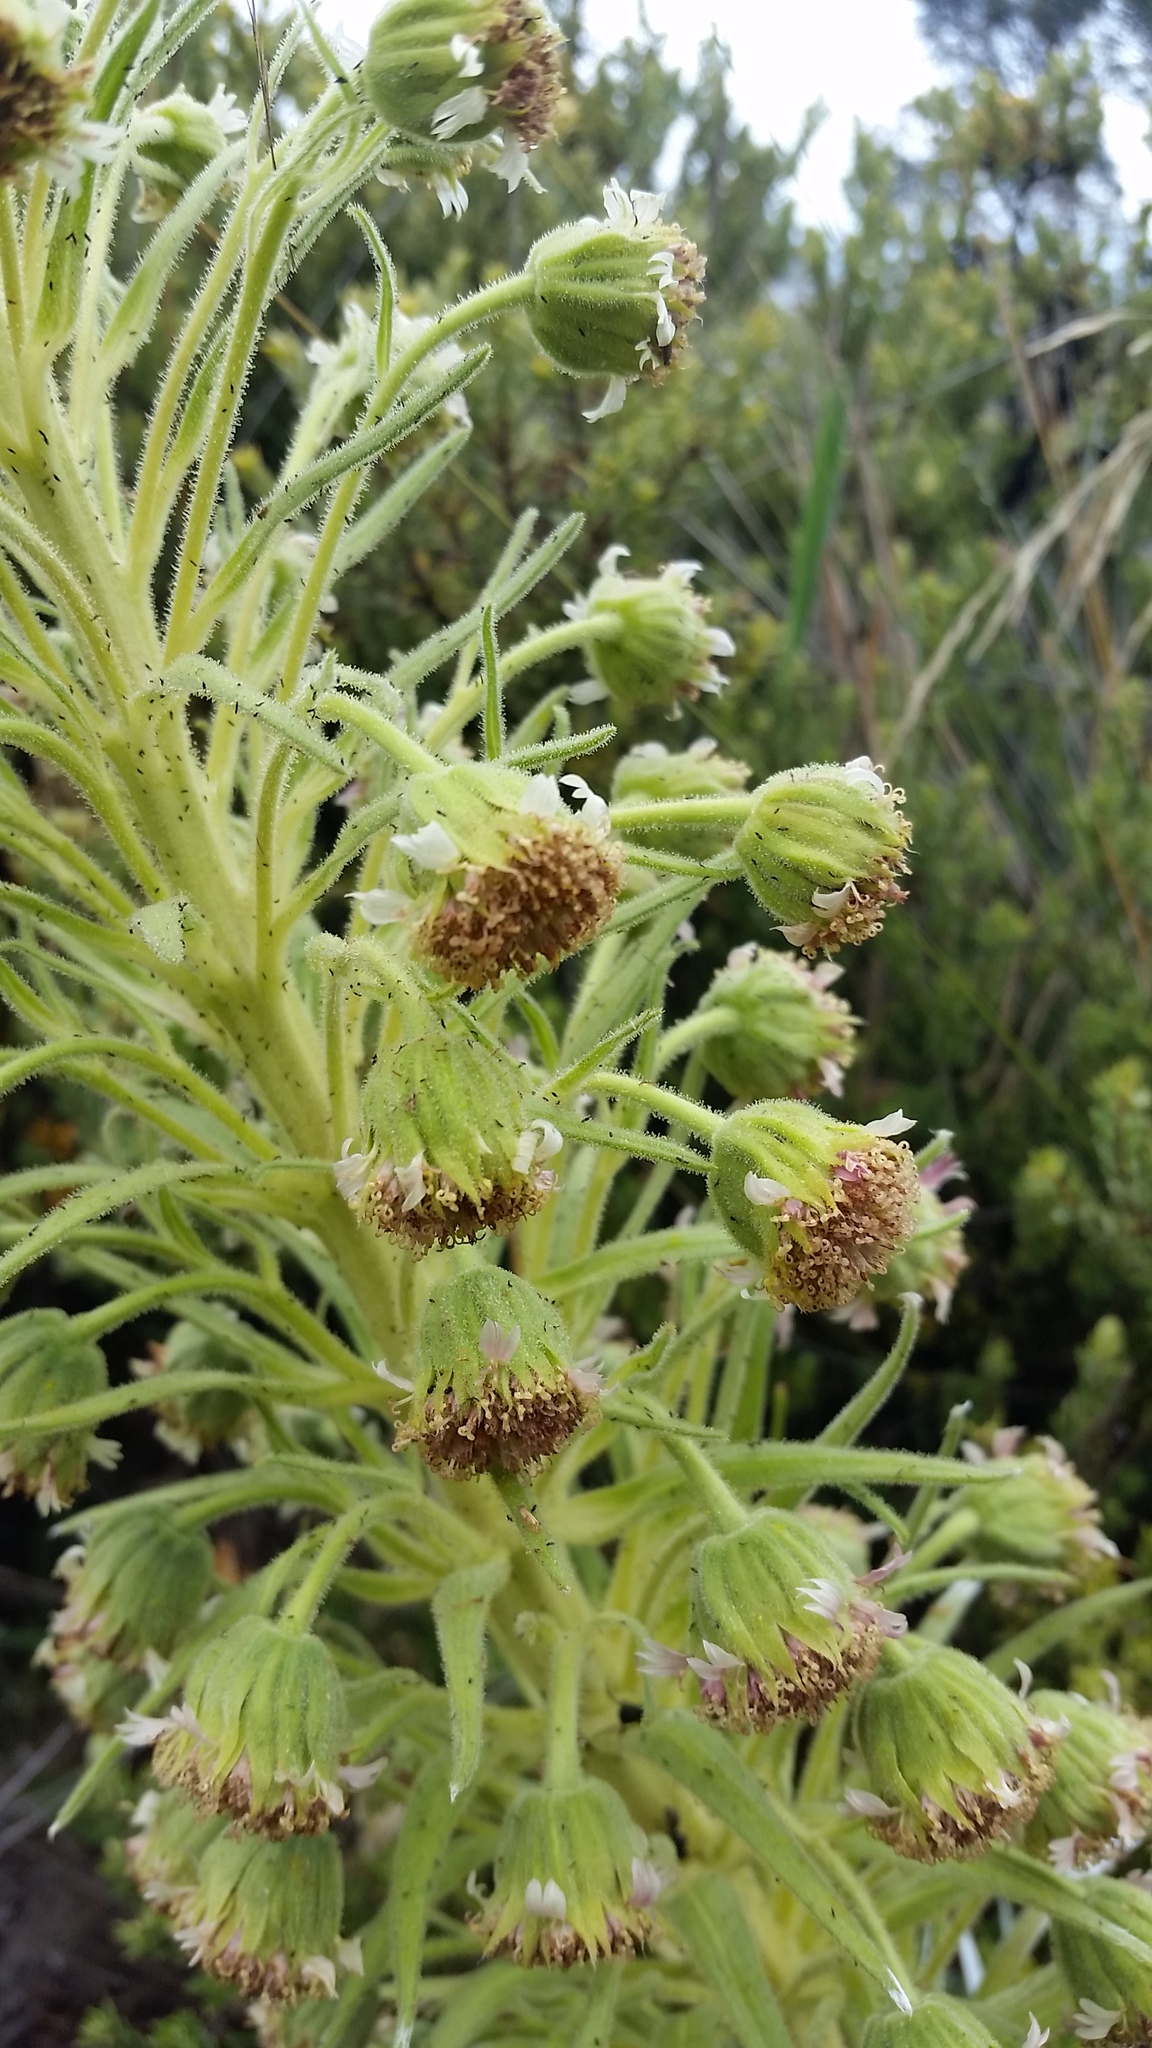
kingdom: Plantae
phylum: Tracheophyta
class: Magnoliopsida
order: Asterales
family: Asteraceae
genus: Argyroxiphium
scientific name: Argyroxiphium kauense
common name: Kau silversword
